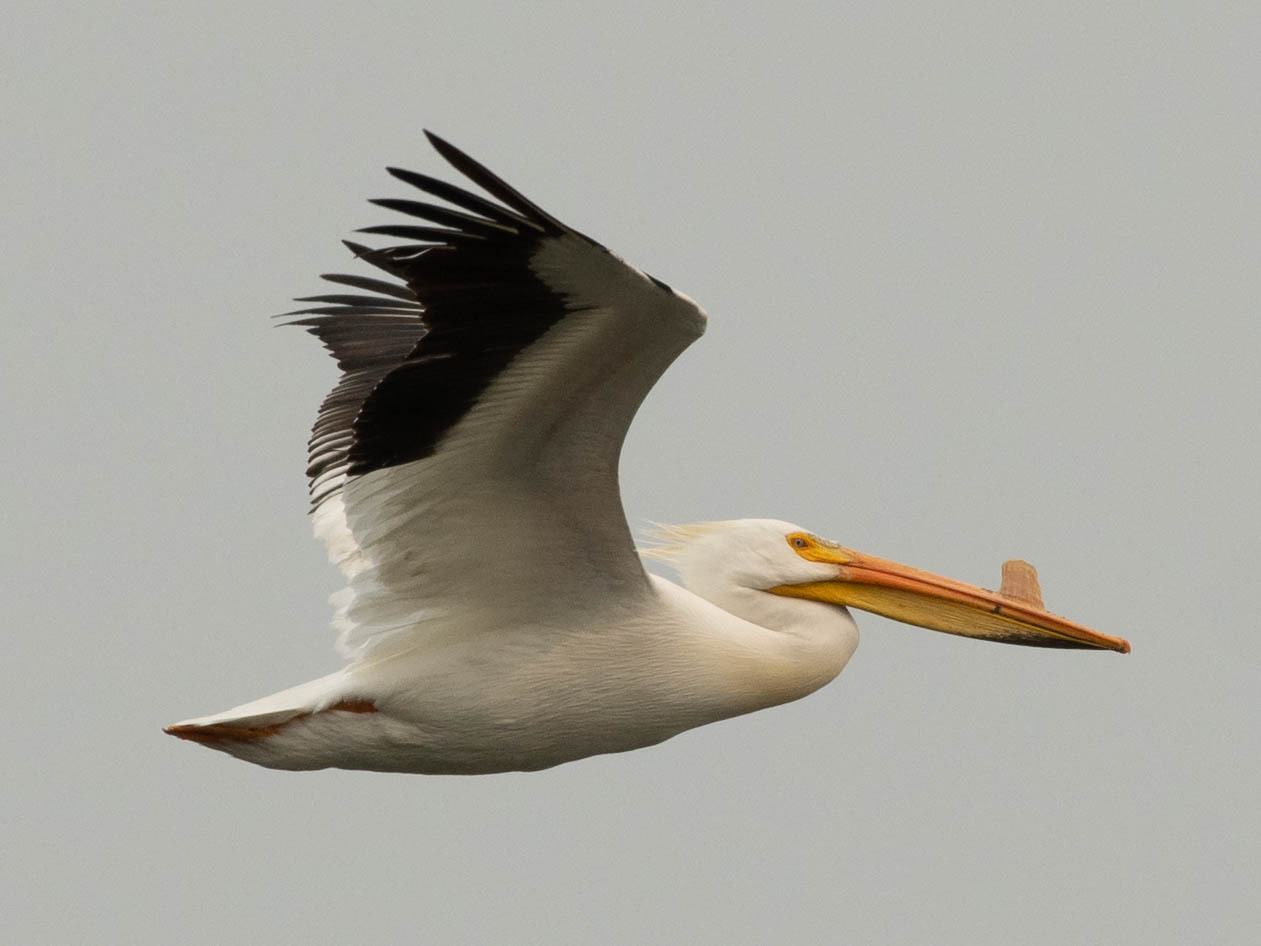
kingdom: Animalia
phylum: Chordata
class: Aves
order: Pelecaniformes
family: Pelecanidae
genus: Pelecanus
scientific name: Pelecanus erythrorhynchos
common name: American white pelican
